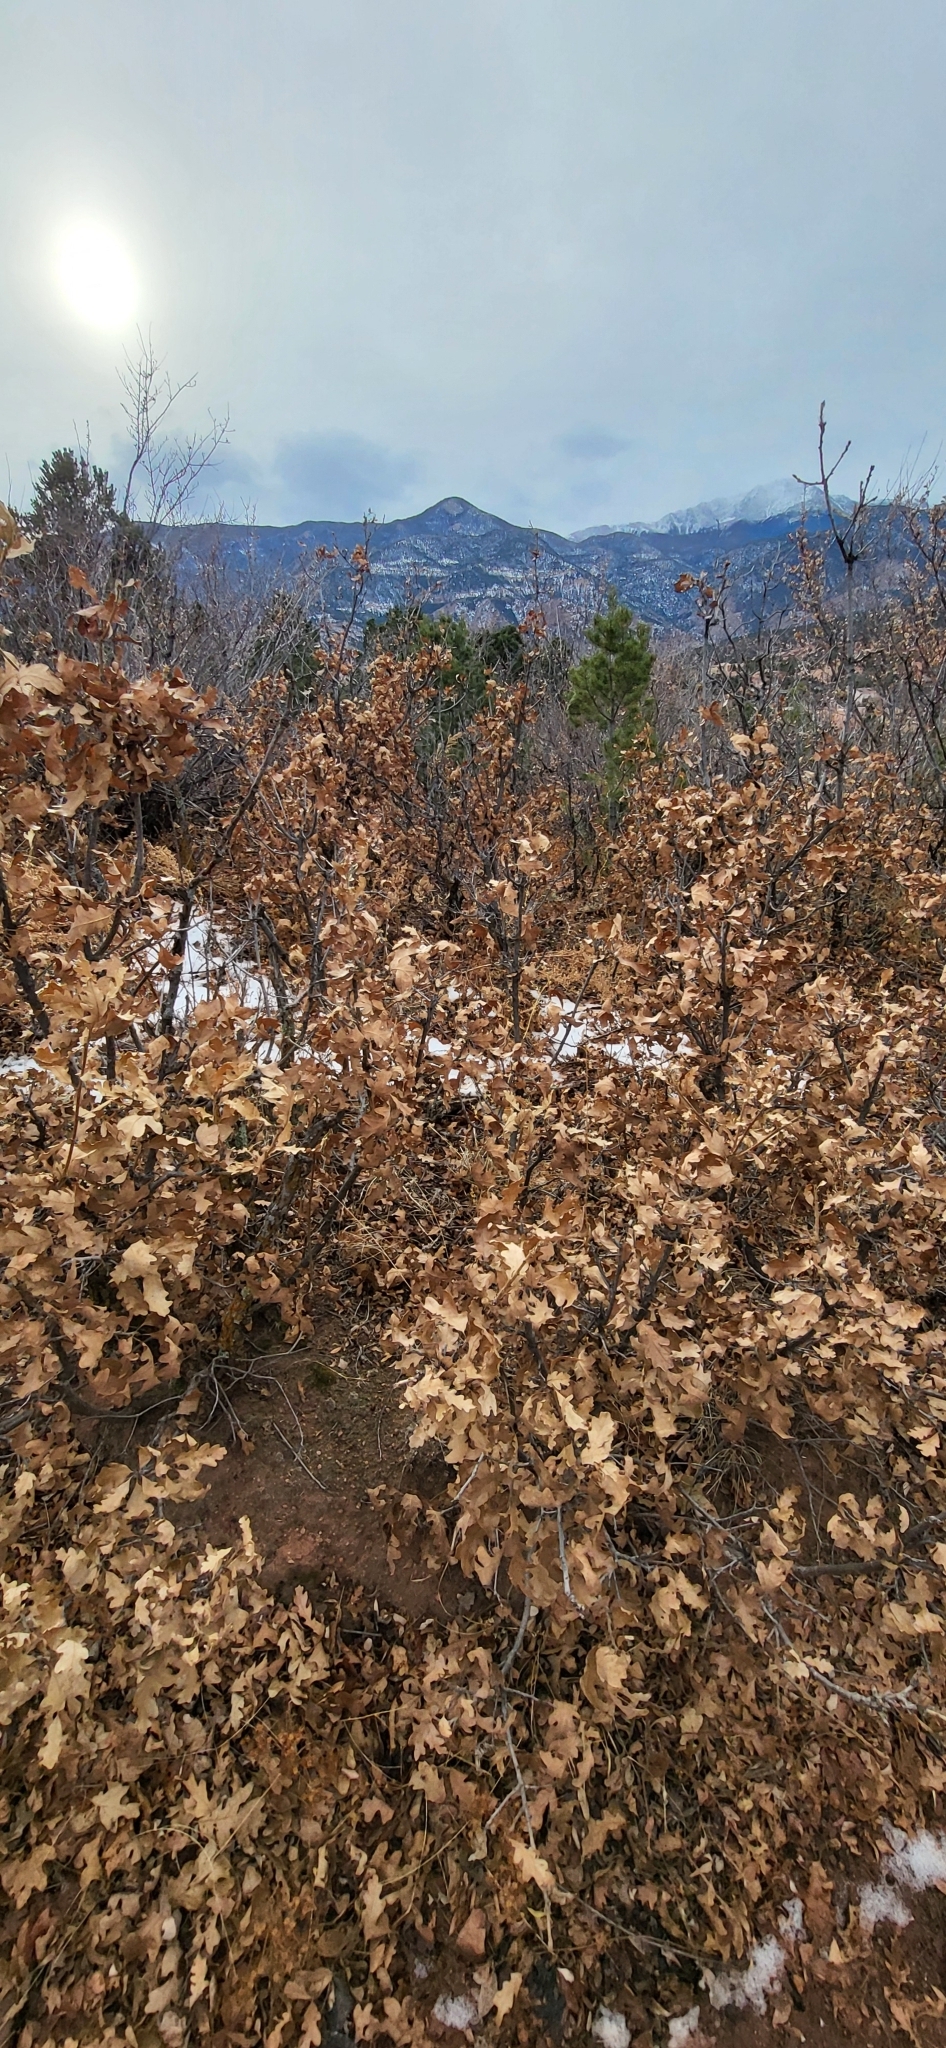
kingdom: Plantae
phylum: Tracheophyta
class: Magnoliopsida
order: Fagales
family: Fagaceae
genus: Quercus
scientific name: Quercus gambelii
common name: Gambel oak
